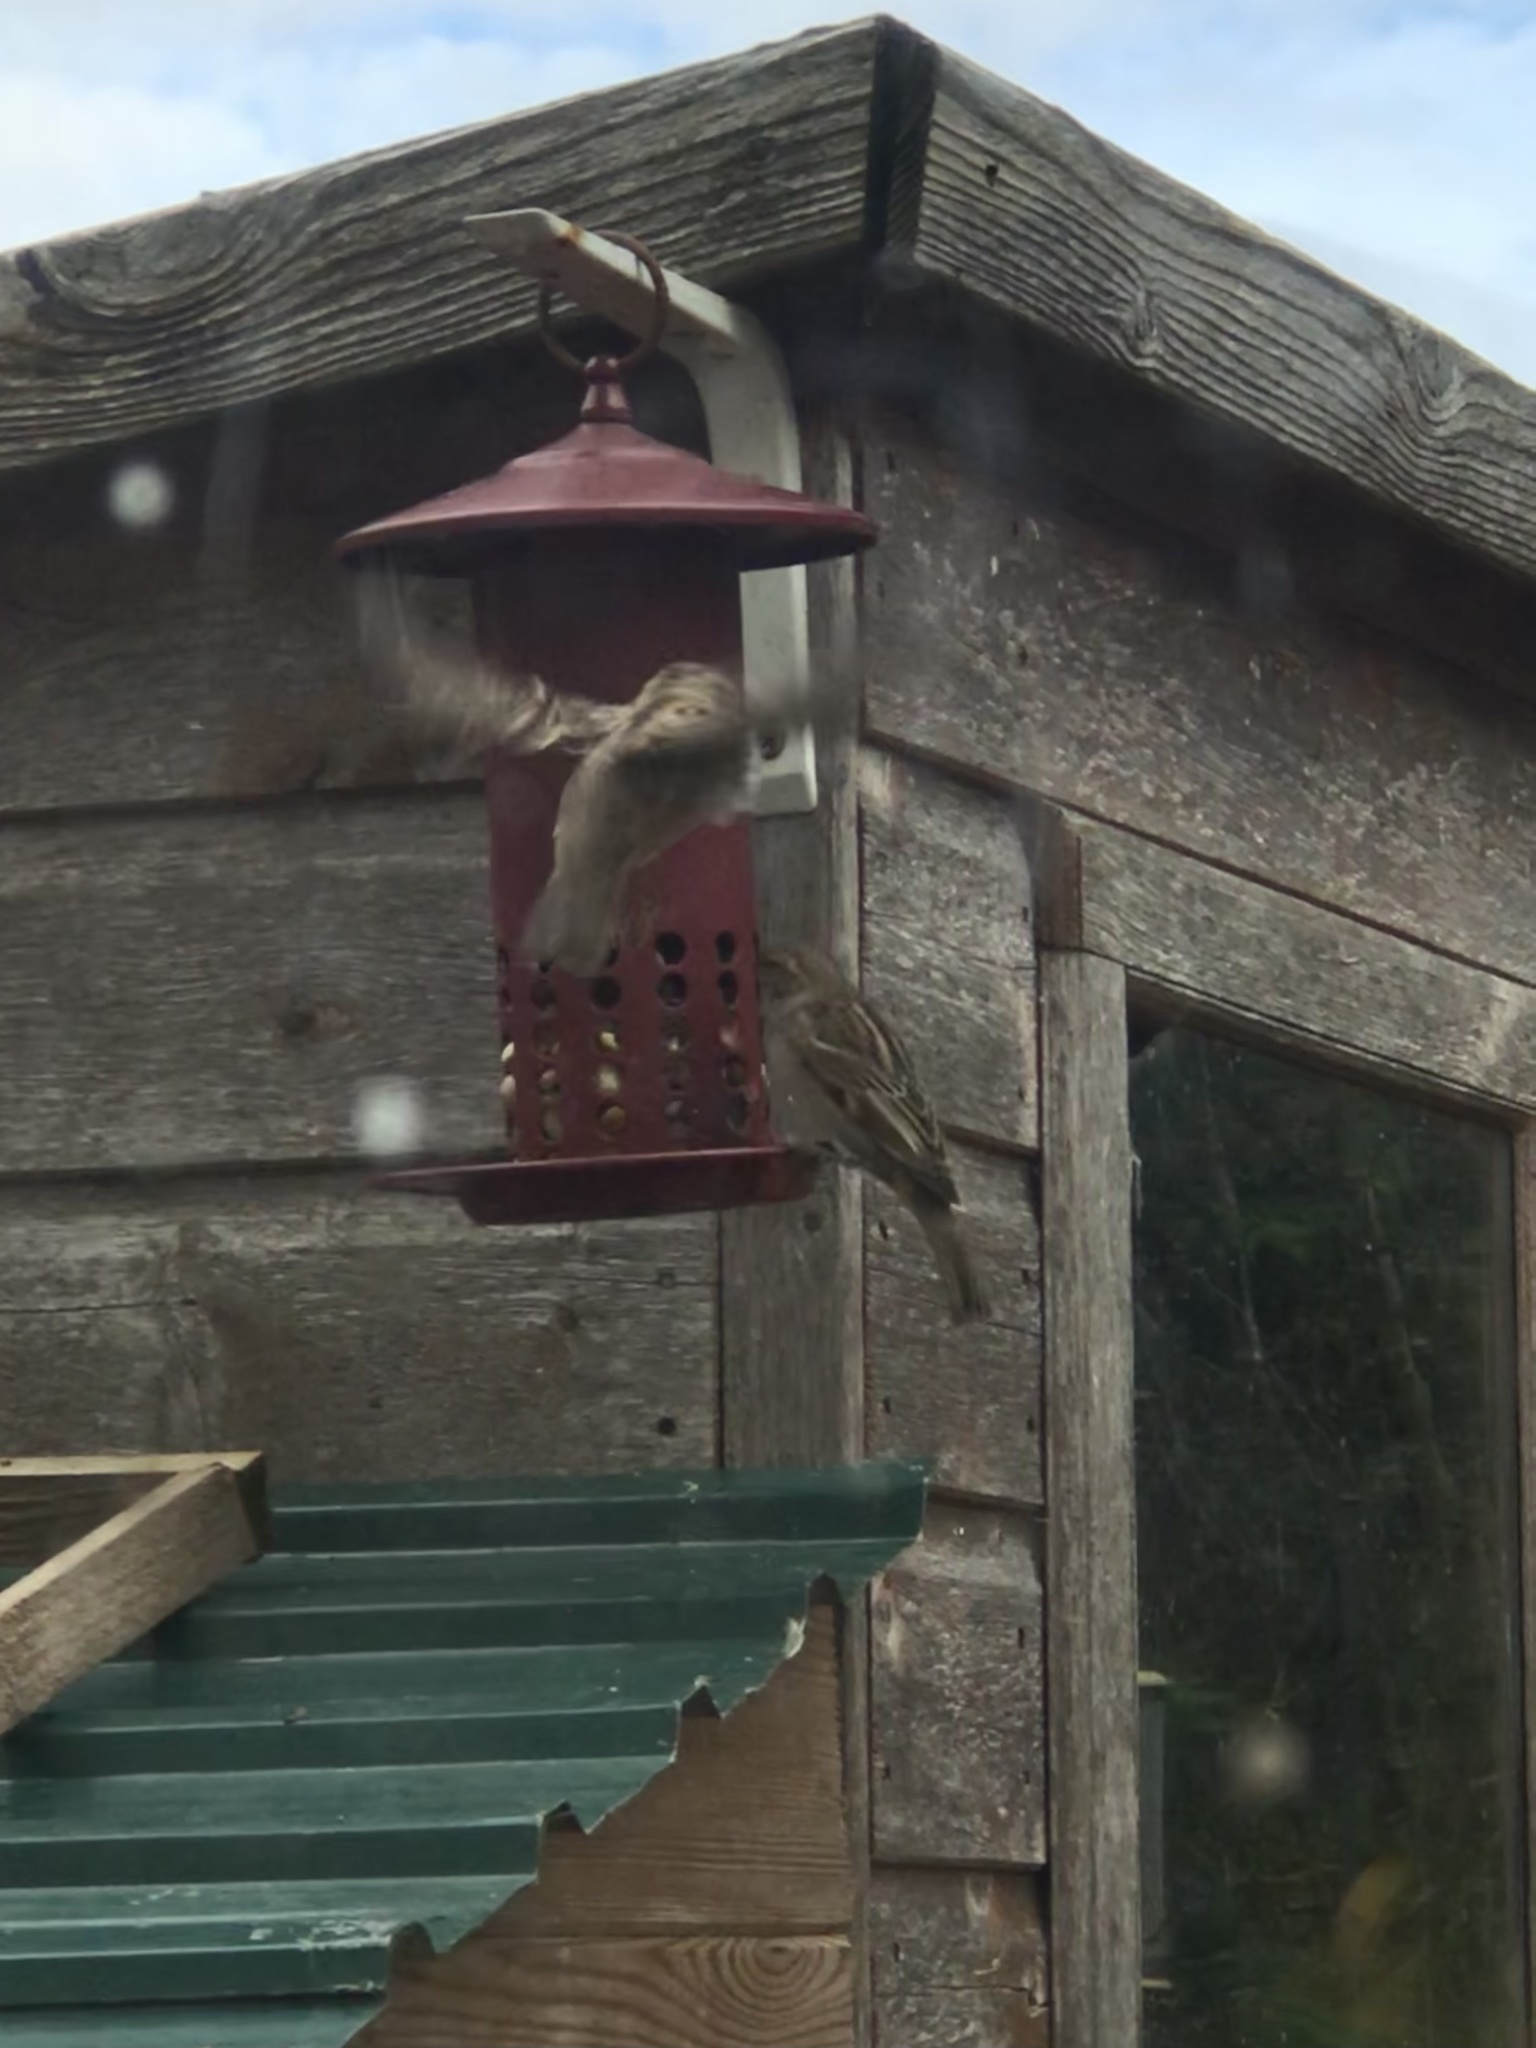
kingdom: Animalia
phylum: Chordata
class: Aves
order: Passeriformes
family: Passeridae
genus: Passer
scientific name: Passer domesticus
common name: House sparrow
